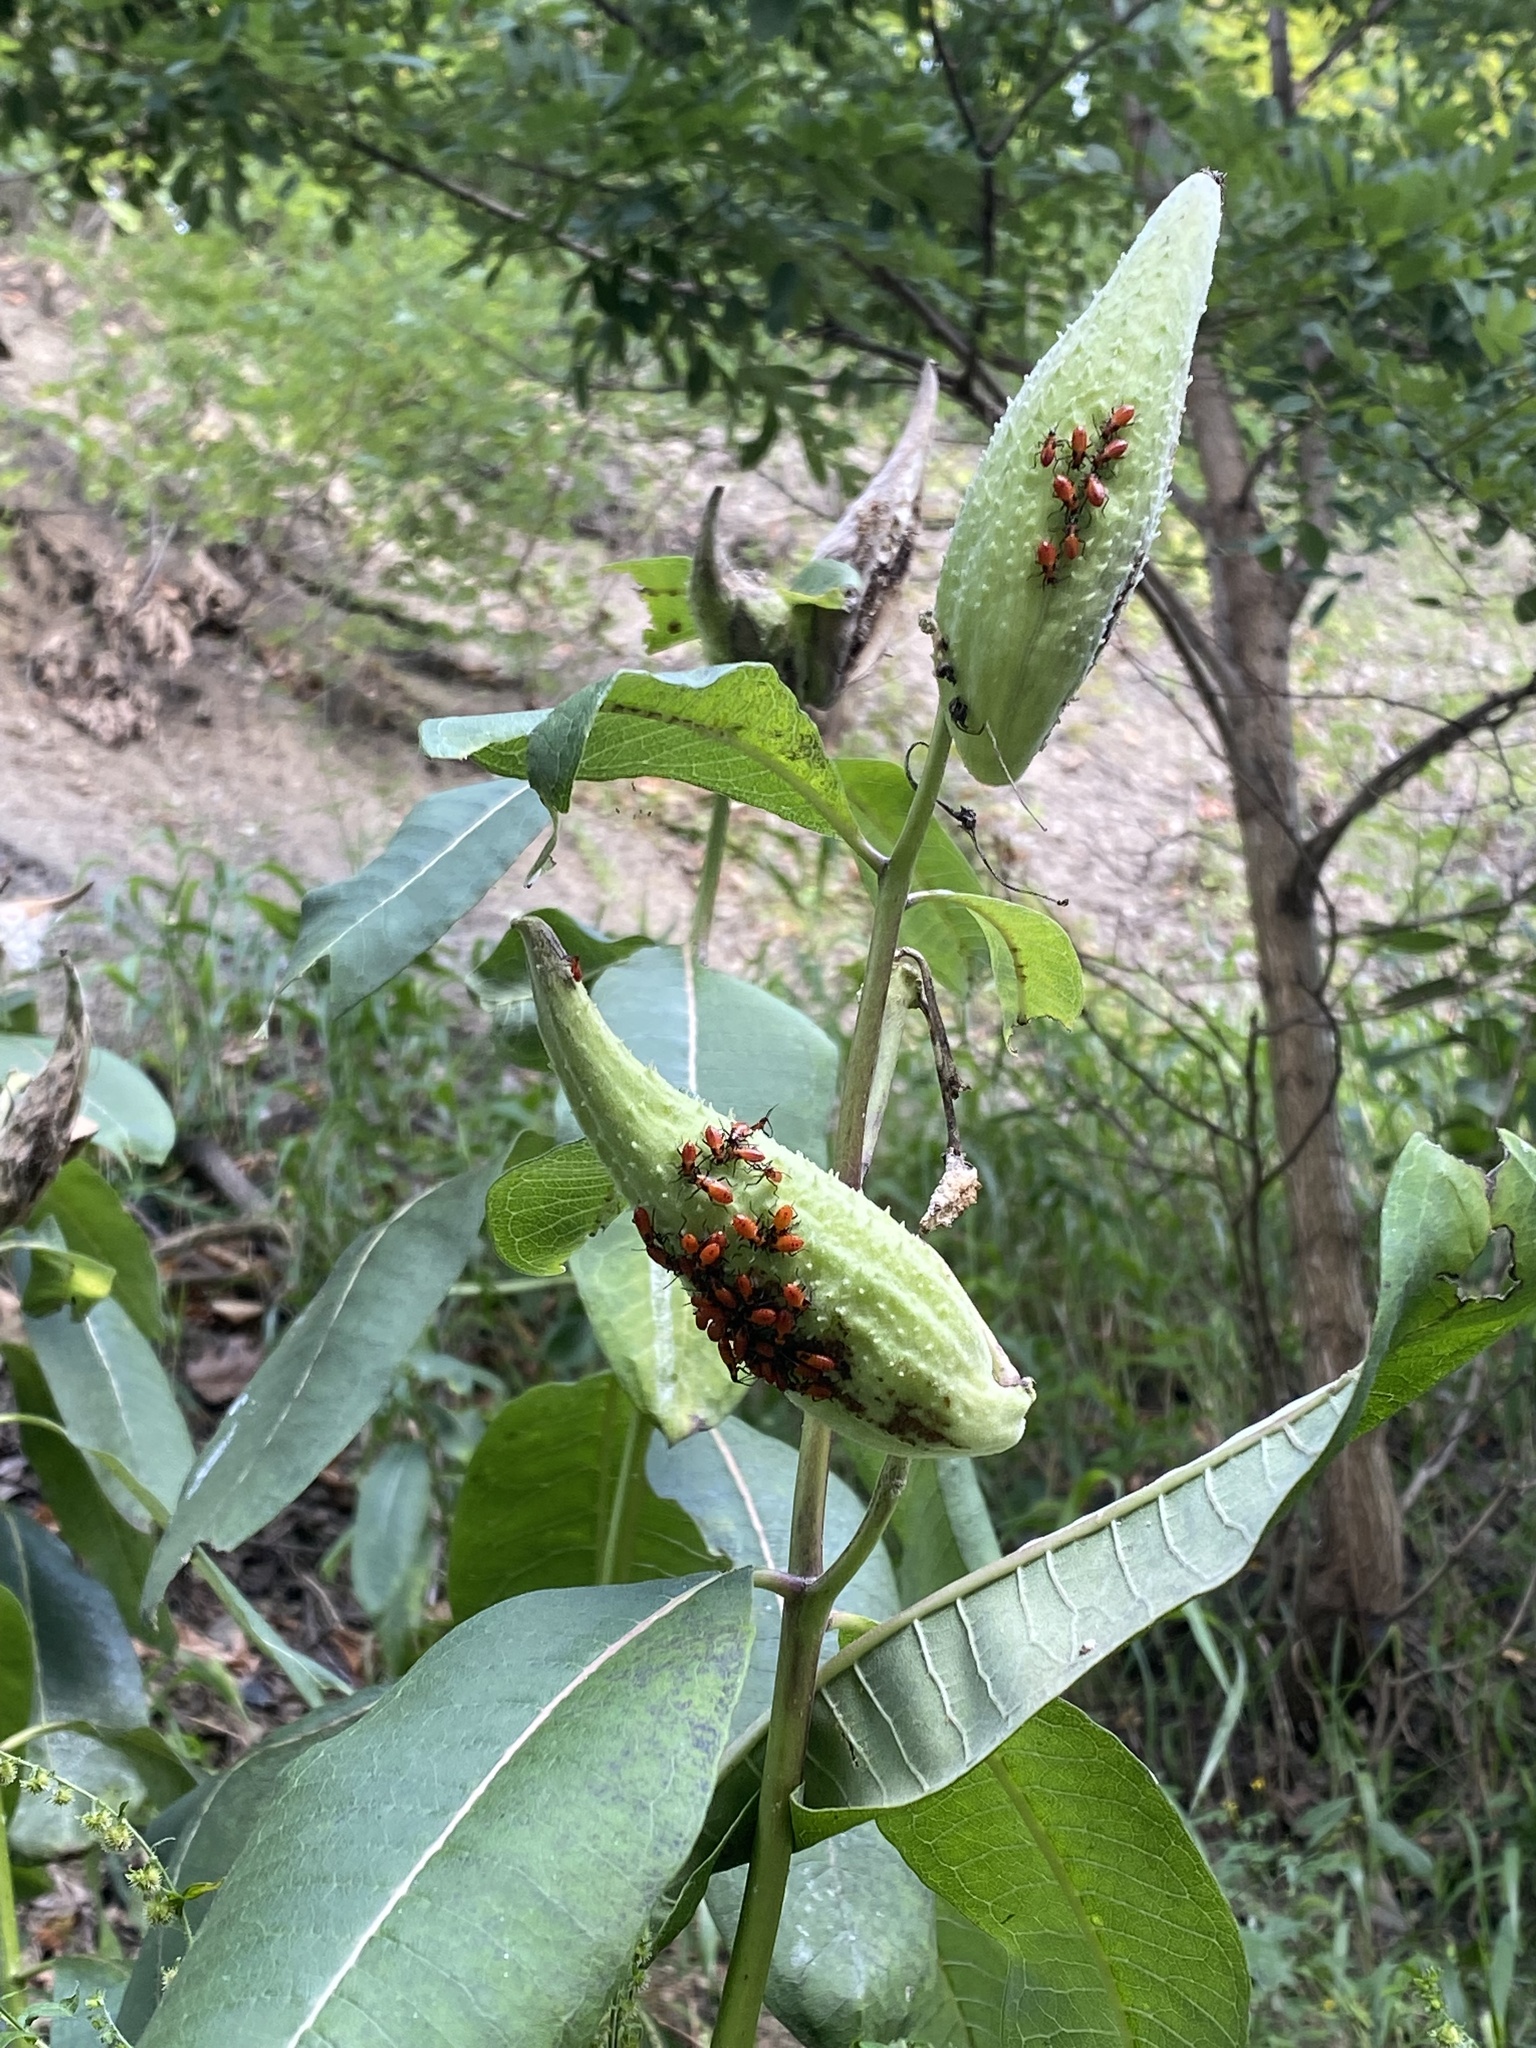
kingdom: Animalia
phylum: Arthropoda
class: Insecta
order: Hemiptera
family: Lygaeidae
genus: Oncopeltus
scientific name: Oncopeltus fasciatus
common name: Large milkweed bug
